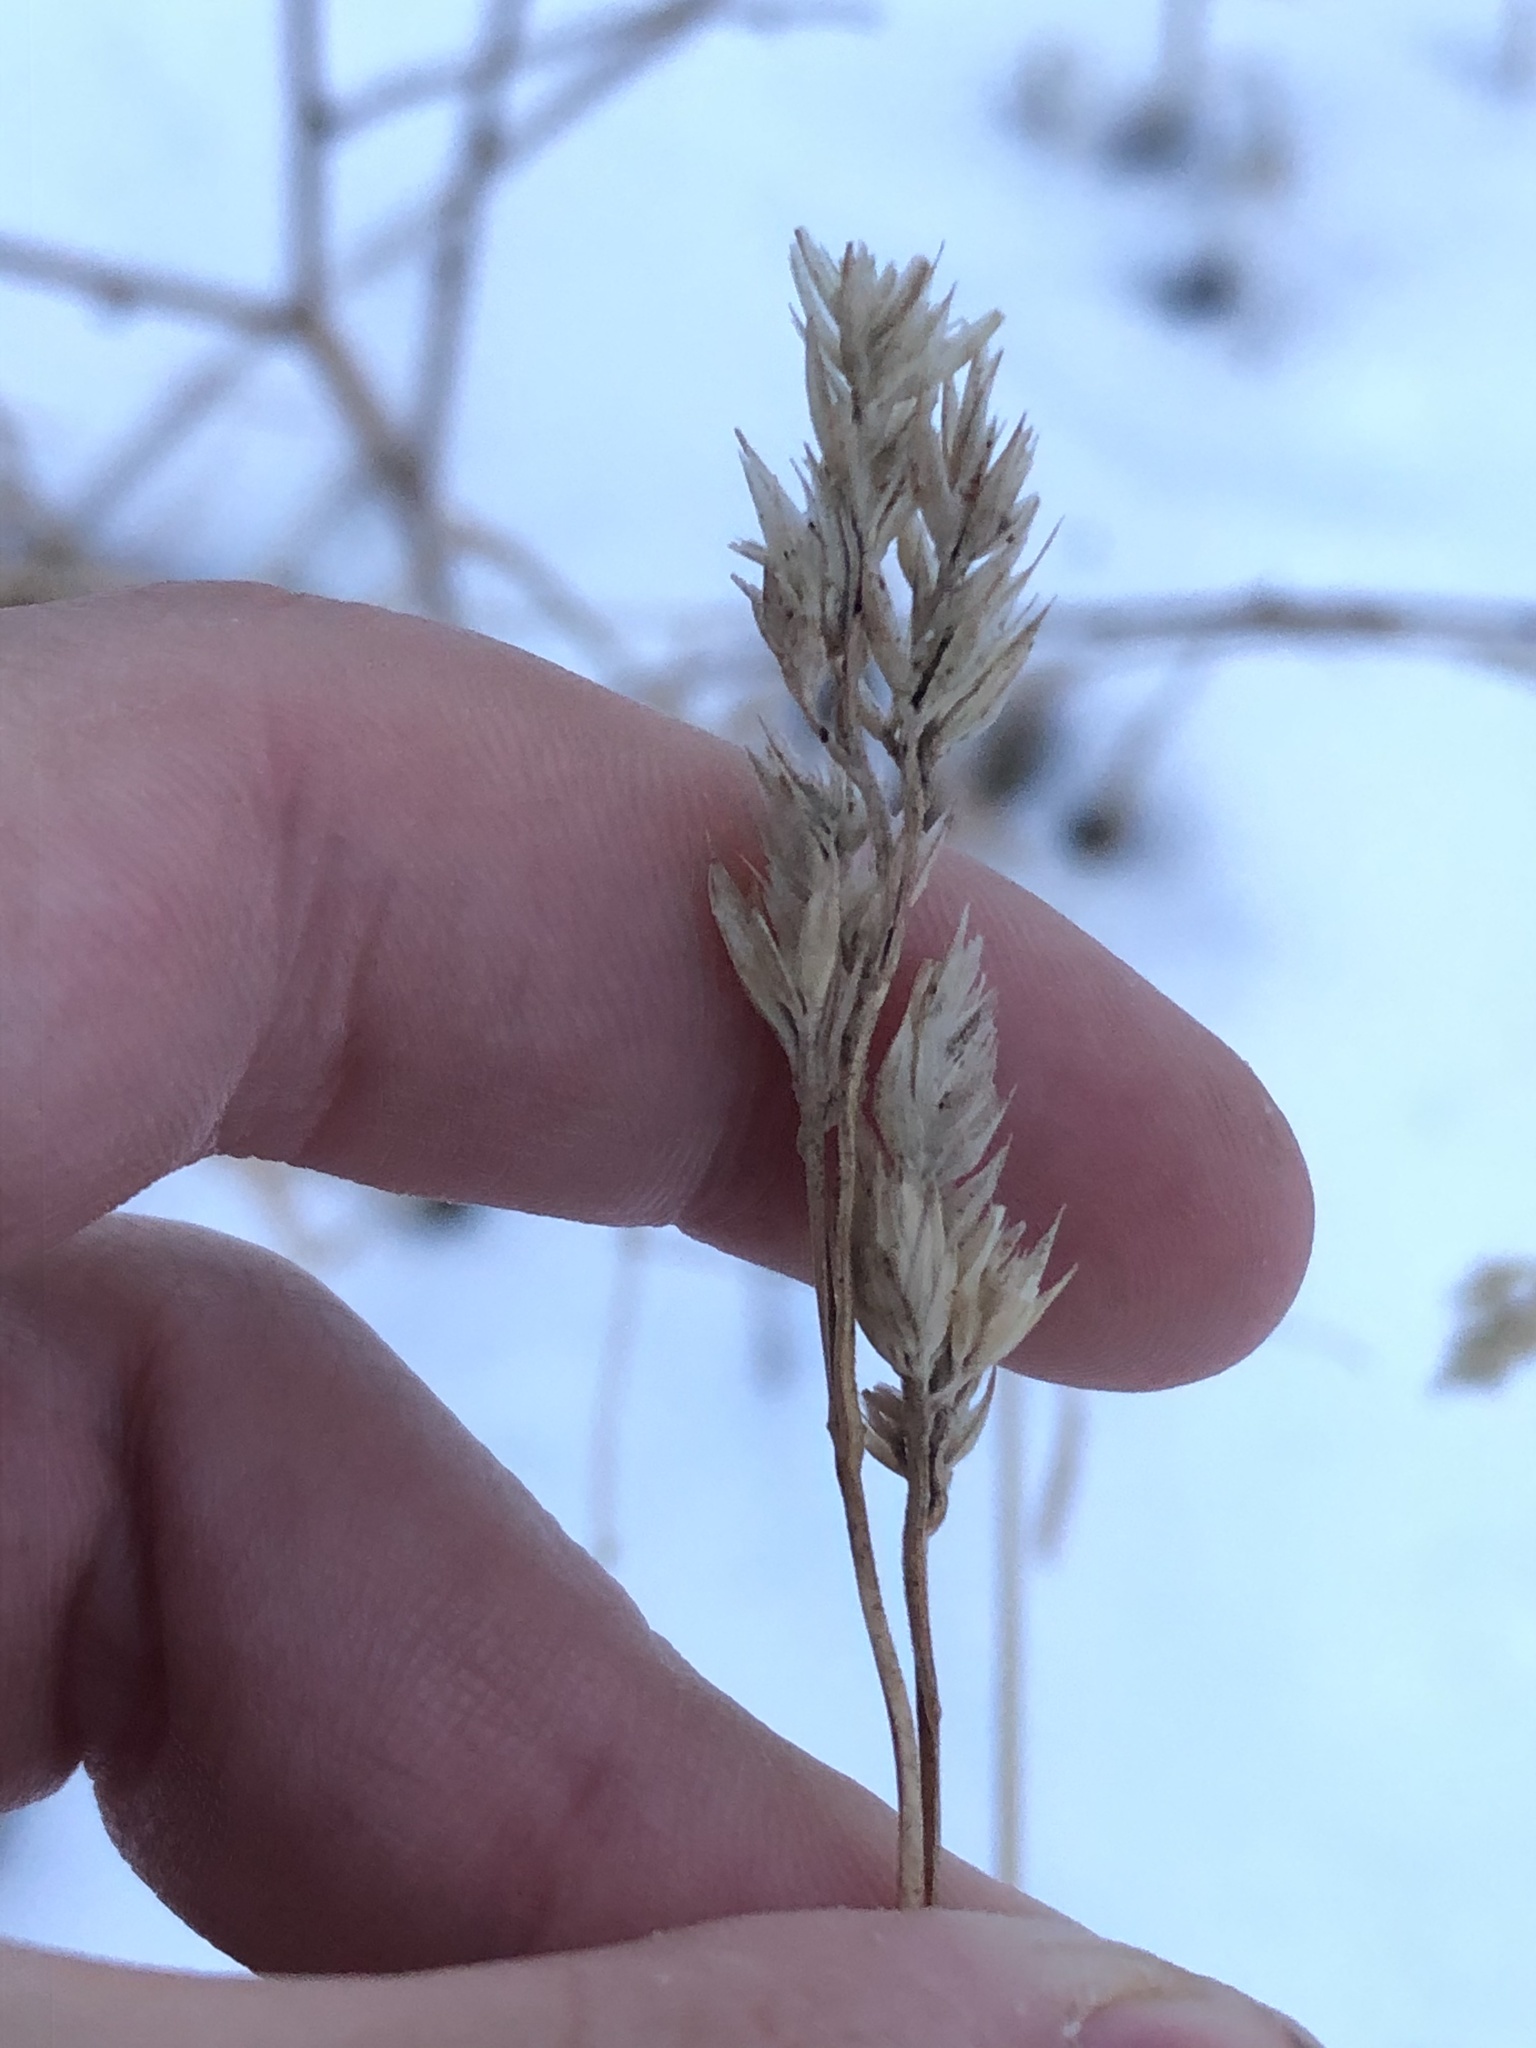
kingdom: Plantae
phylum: Tracheophyta
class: Liliopsida
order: Poales
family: Poaceae
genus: Dactylis
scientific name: Dactylis glomerata
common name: Orchardgrass
